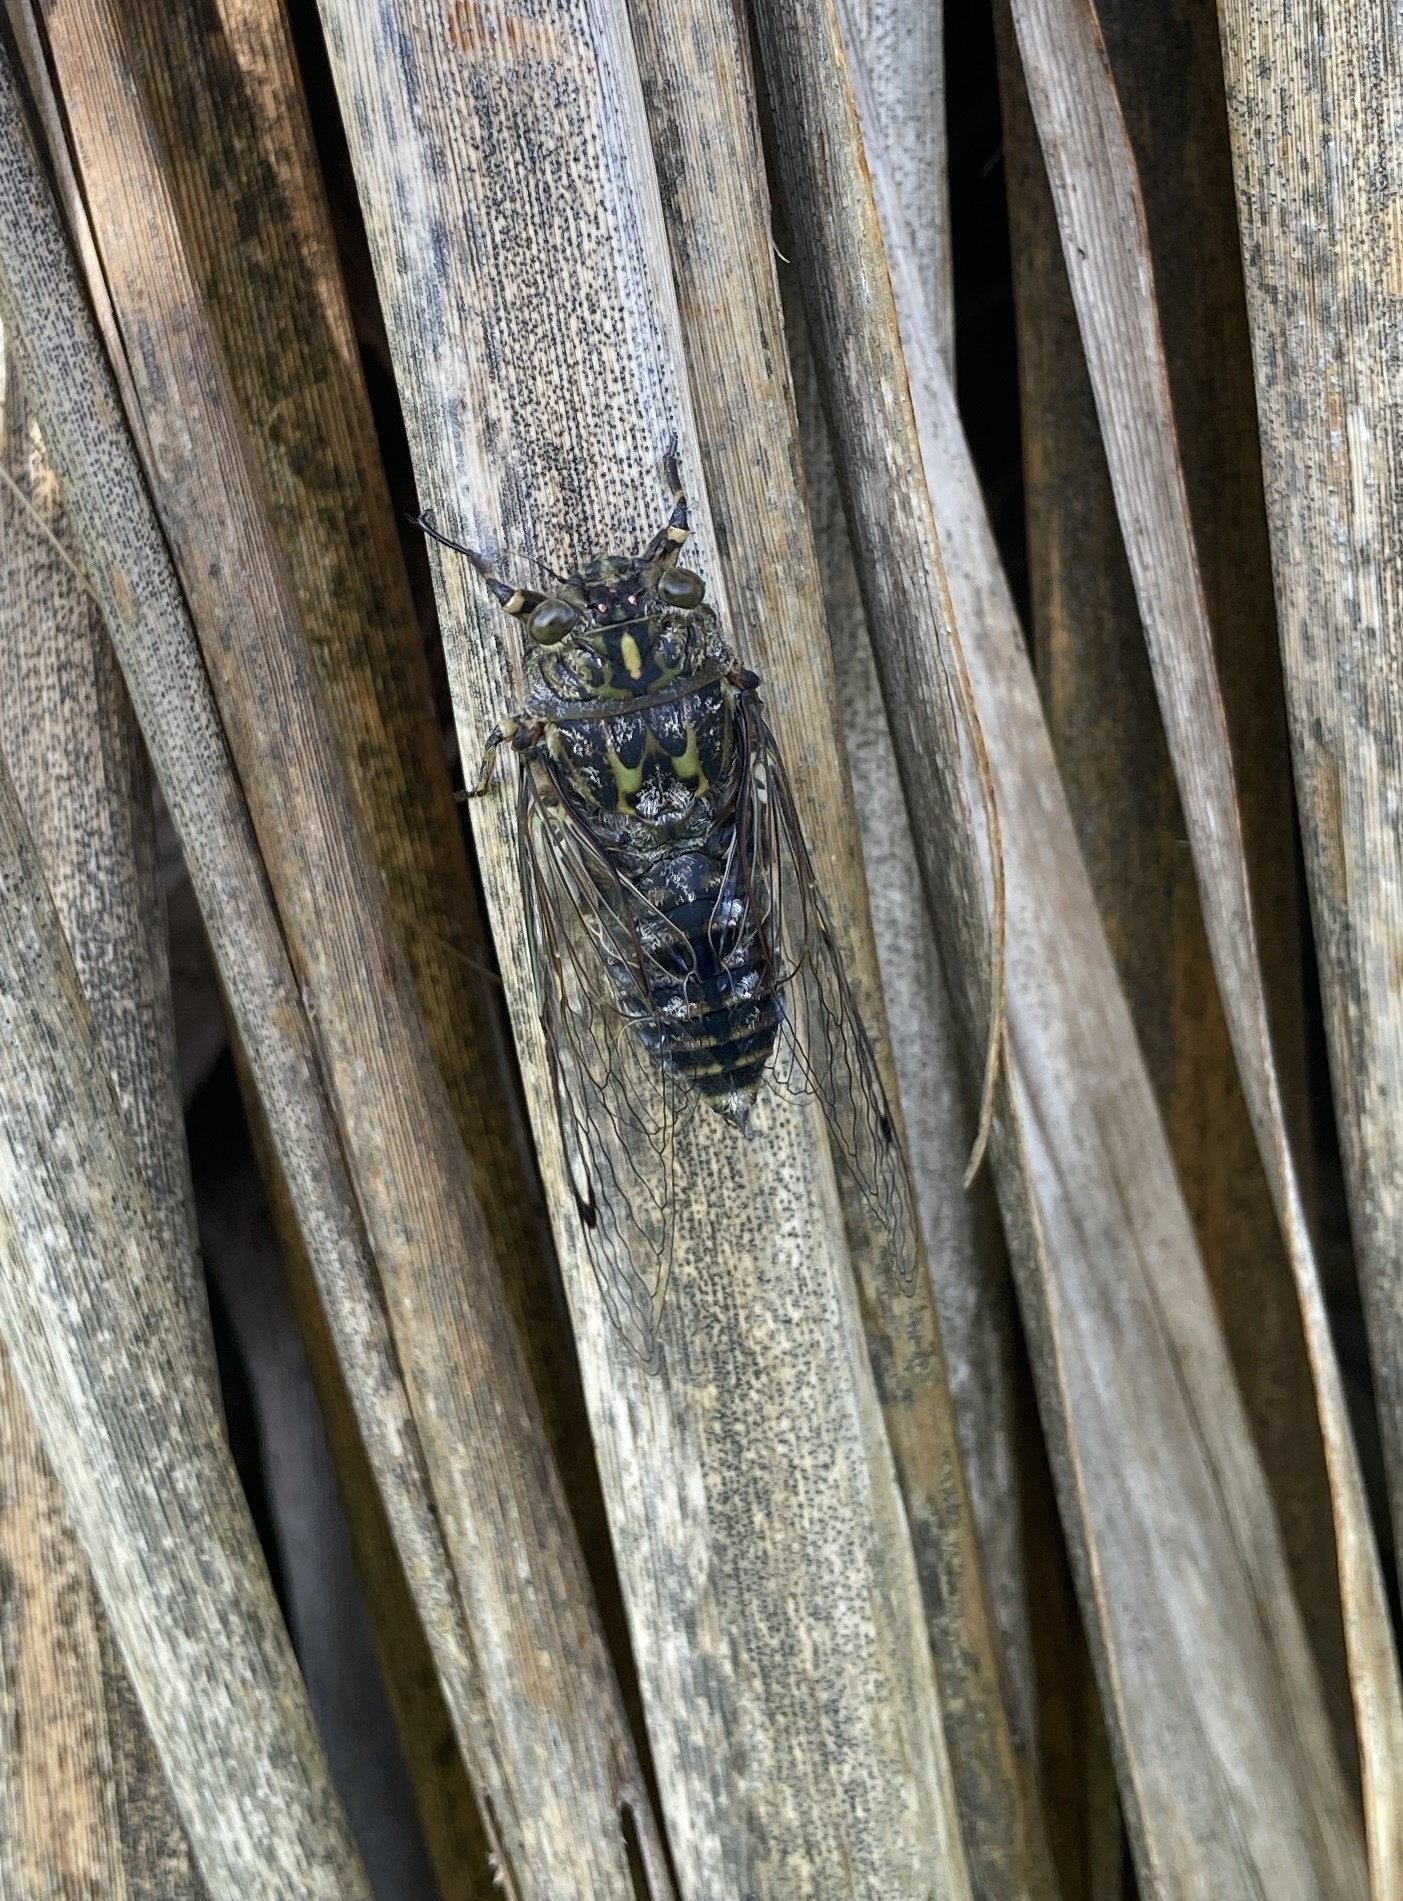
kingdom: Animalia
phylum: Arthropoda
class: Insecta
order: Hemiptera
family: Cicadidae
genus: Amphipsalta
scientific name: Amphipsalta cingulata
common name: Clapping cicada
